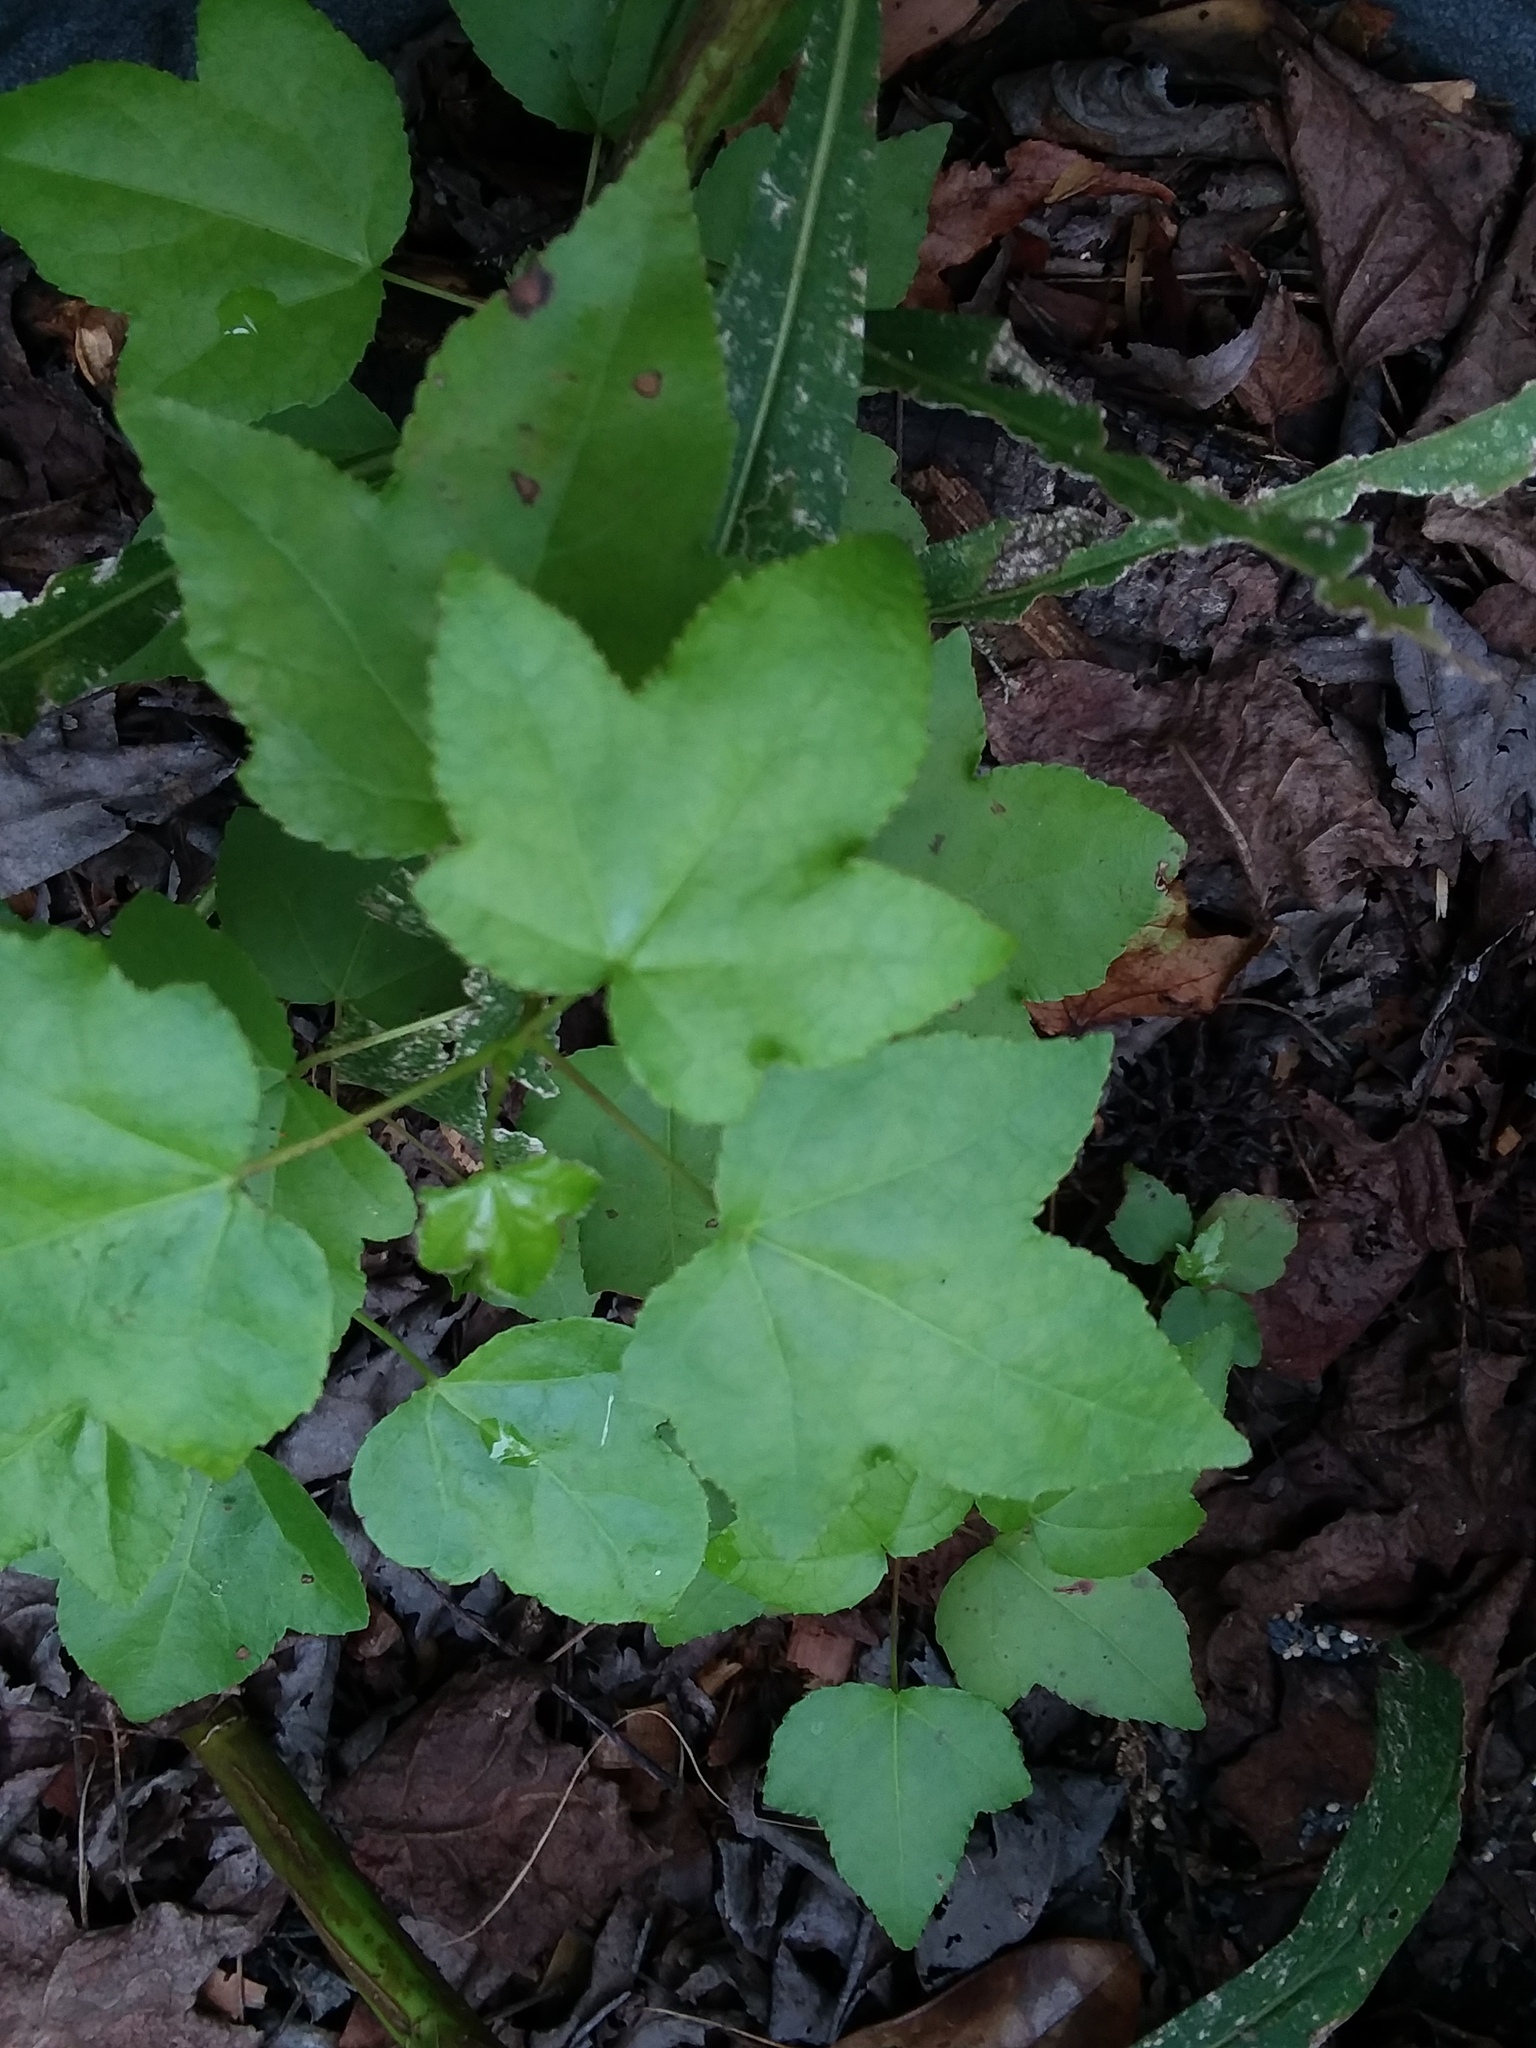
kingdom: Plantae
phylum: Tracheophyta
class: Magnoliopsida
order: Saxifragales
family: Altingiaceae
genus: Liquidambar
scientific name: Liquidambar styraciflua
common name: Sweet gum
